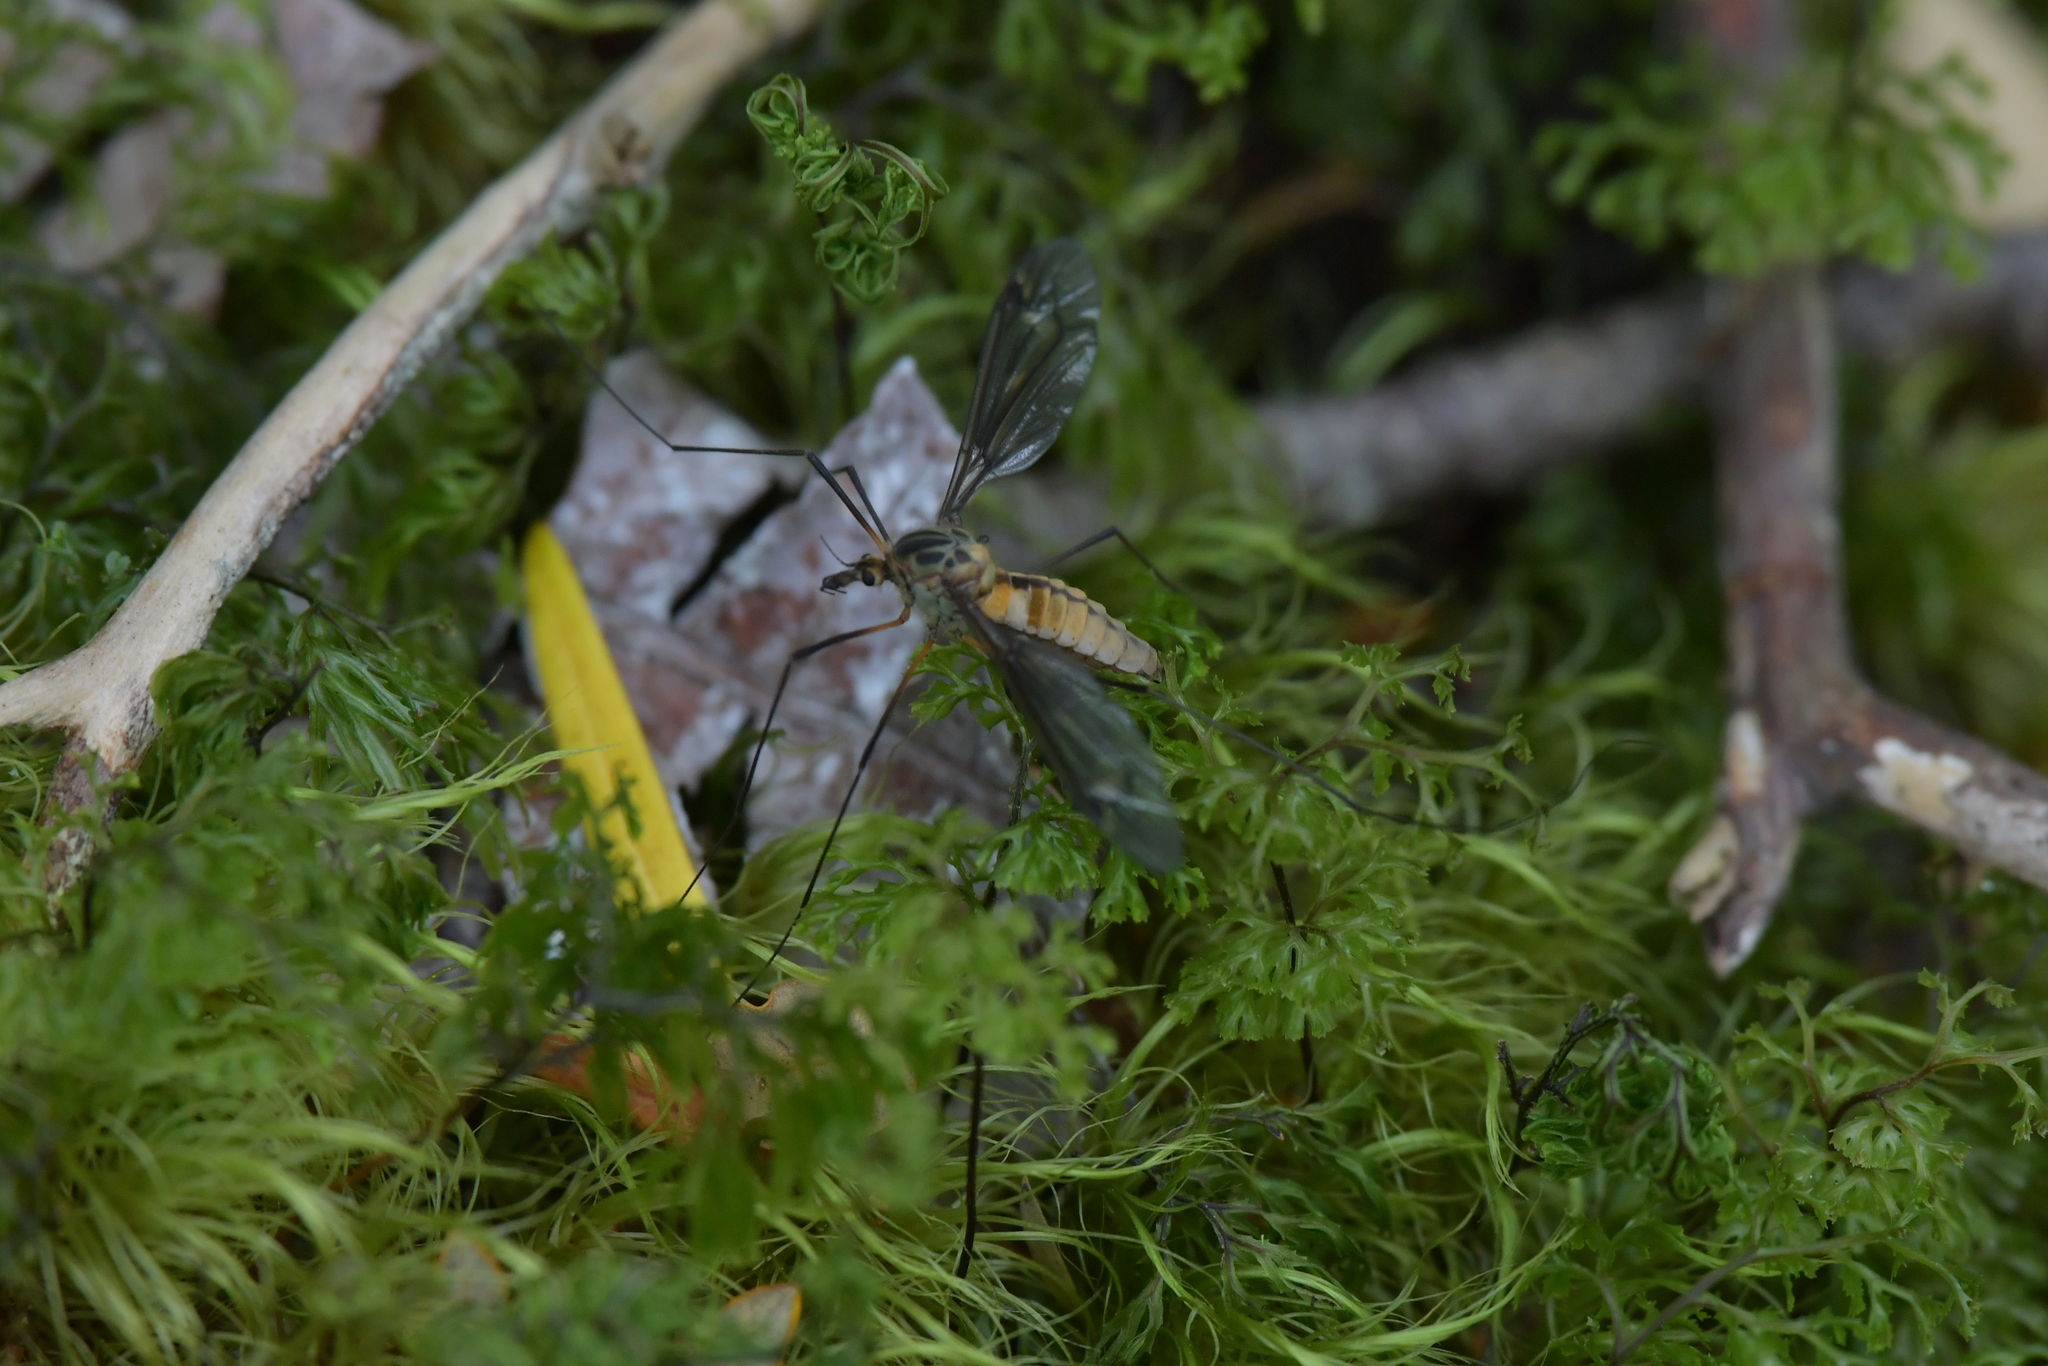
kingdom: Animalia
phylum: Arthropoda
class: Insecta
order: Diptera
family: Tipulidae
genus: Leptotarsus
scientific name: Leptotarsus vulpinus
